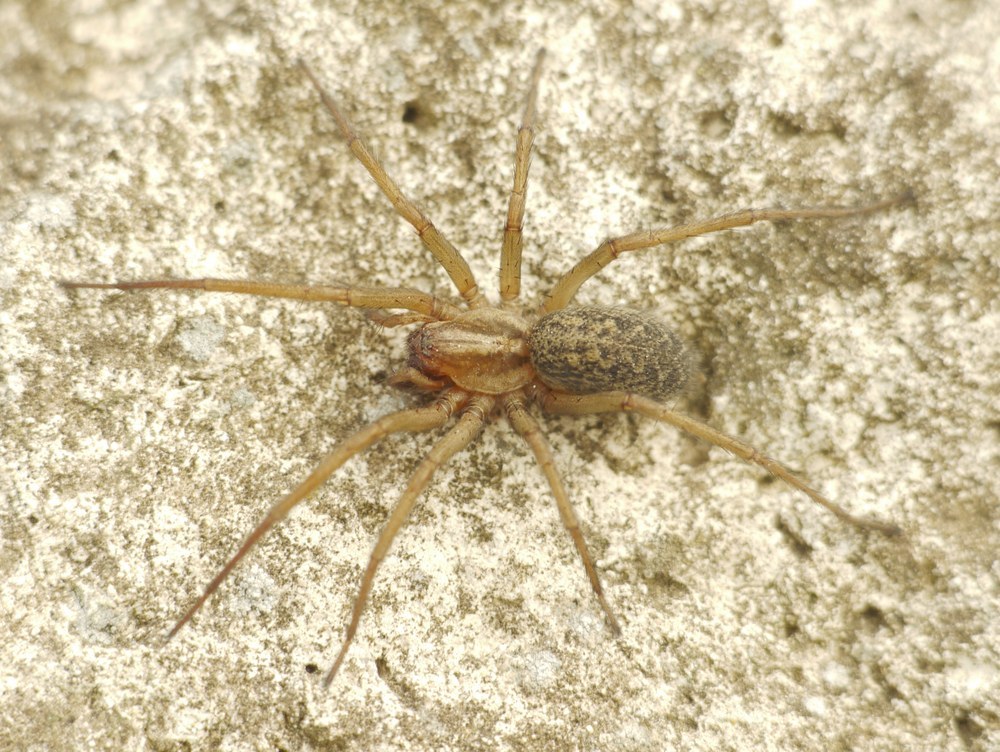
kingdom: Animalia
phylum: Arthropoda
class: Arachnida
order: Araneae
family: Agelenidae
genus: Eratigena
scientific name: Eratigena agrestis
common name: Hobo spider
